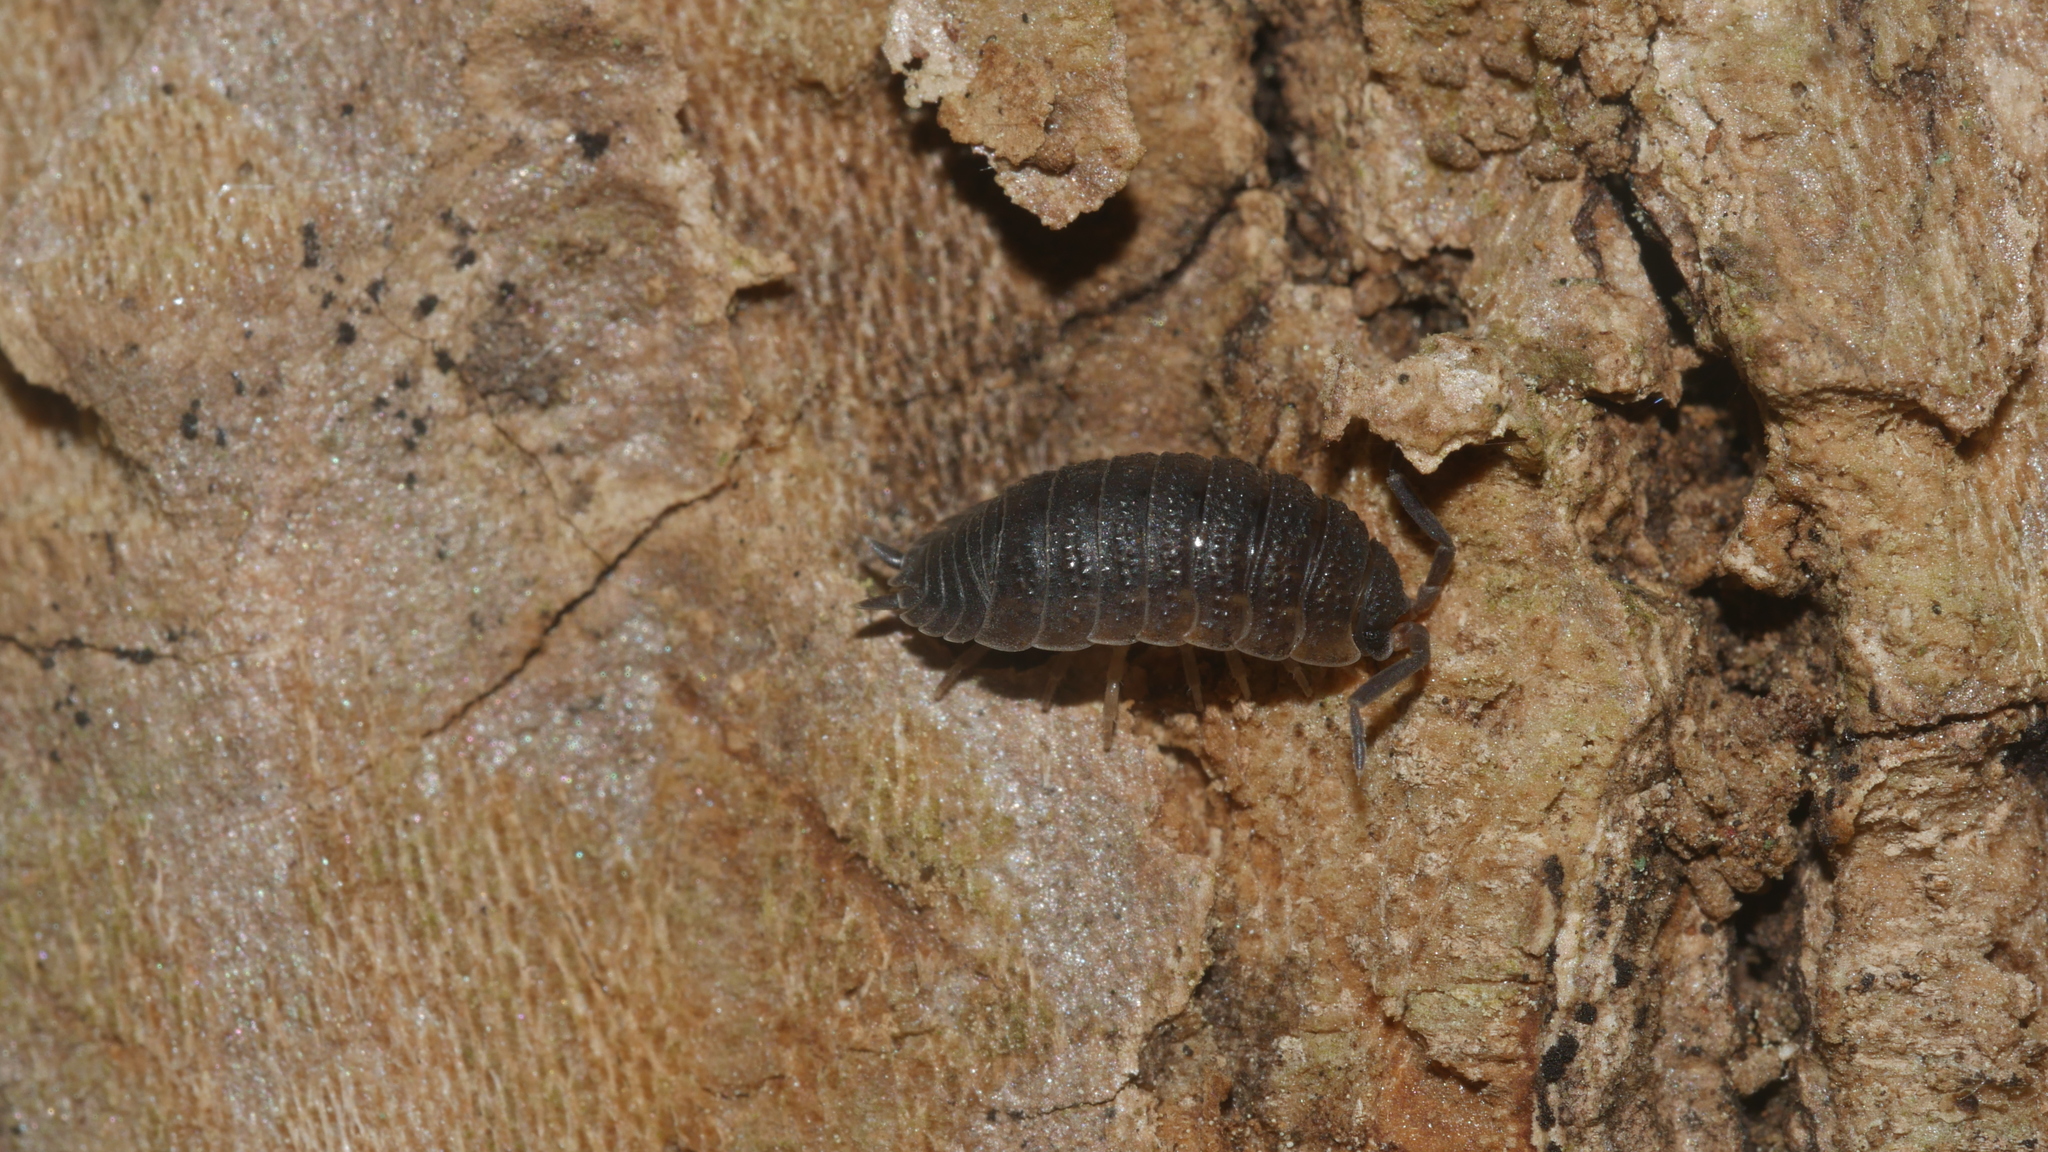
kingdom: Animalia
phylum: Arthropoda
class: Malacostraca
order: Isopoda
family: Porcellionidae
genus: Porcellio
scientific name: Porcellio scaber
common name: Common rough woodlouse
